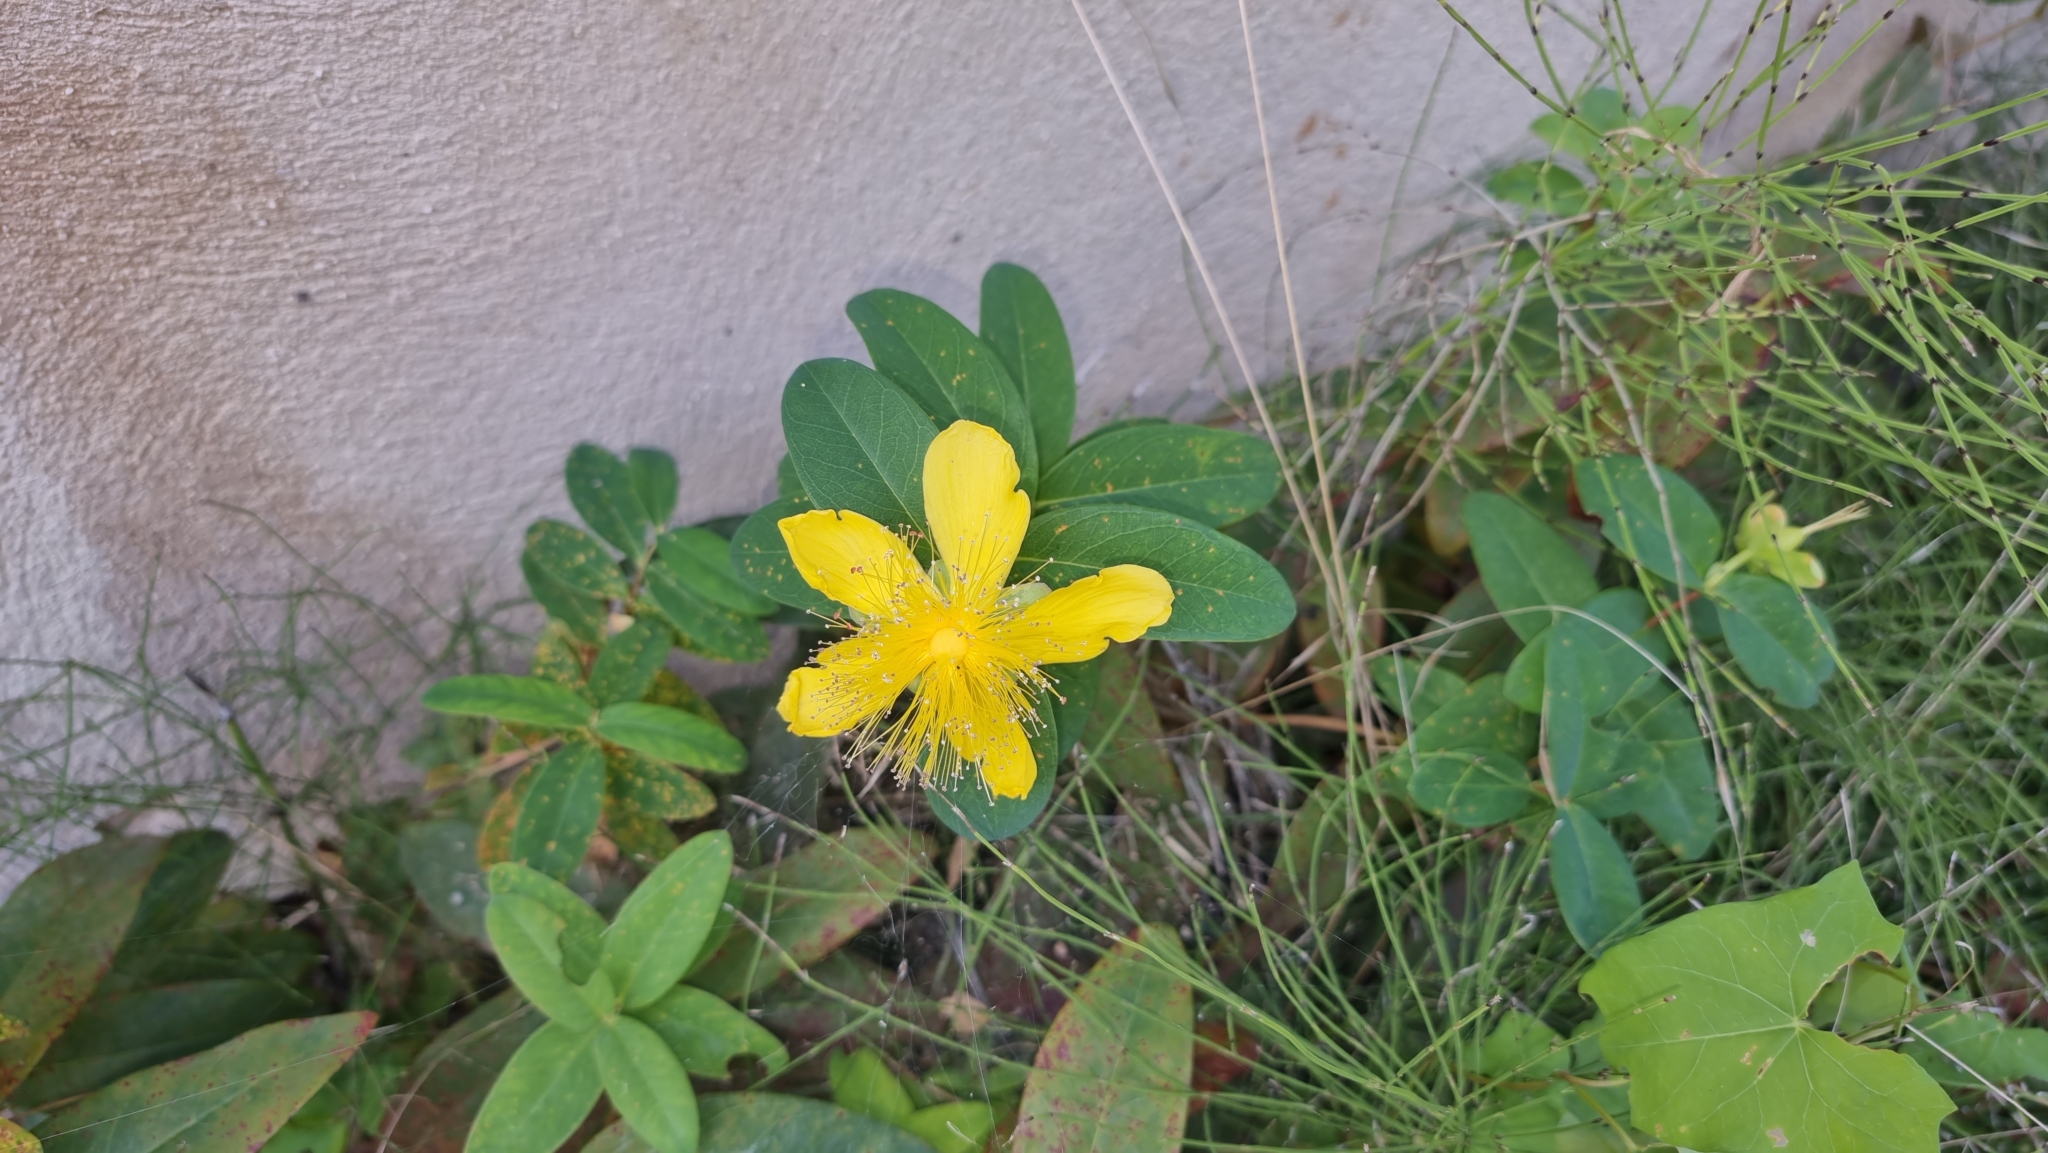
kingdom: Plantae
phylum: Tracheophyta
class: Magnoliopsida
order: Malpighiales
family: Hypericaceae
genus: Hypericum
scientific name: Hypericum calycinum
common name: Rose-of-sharon
